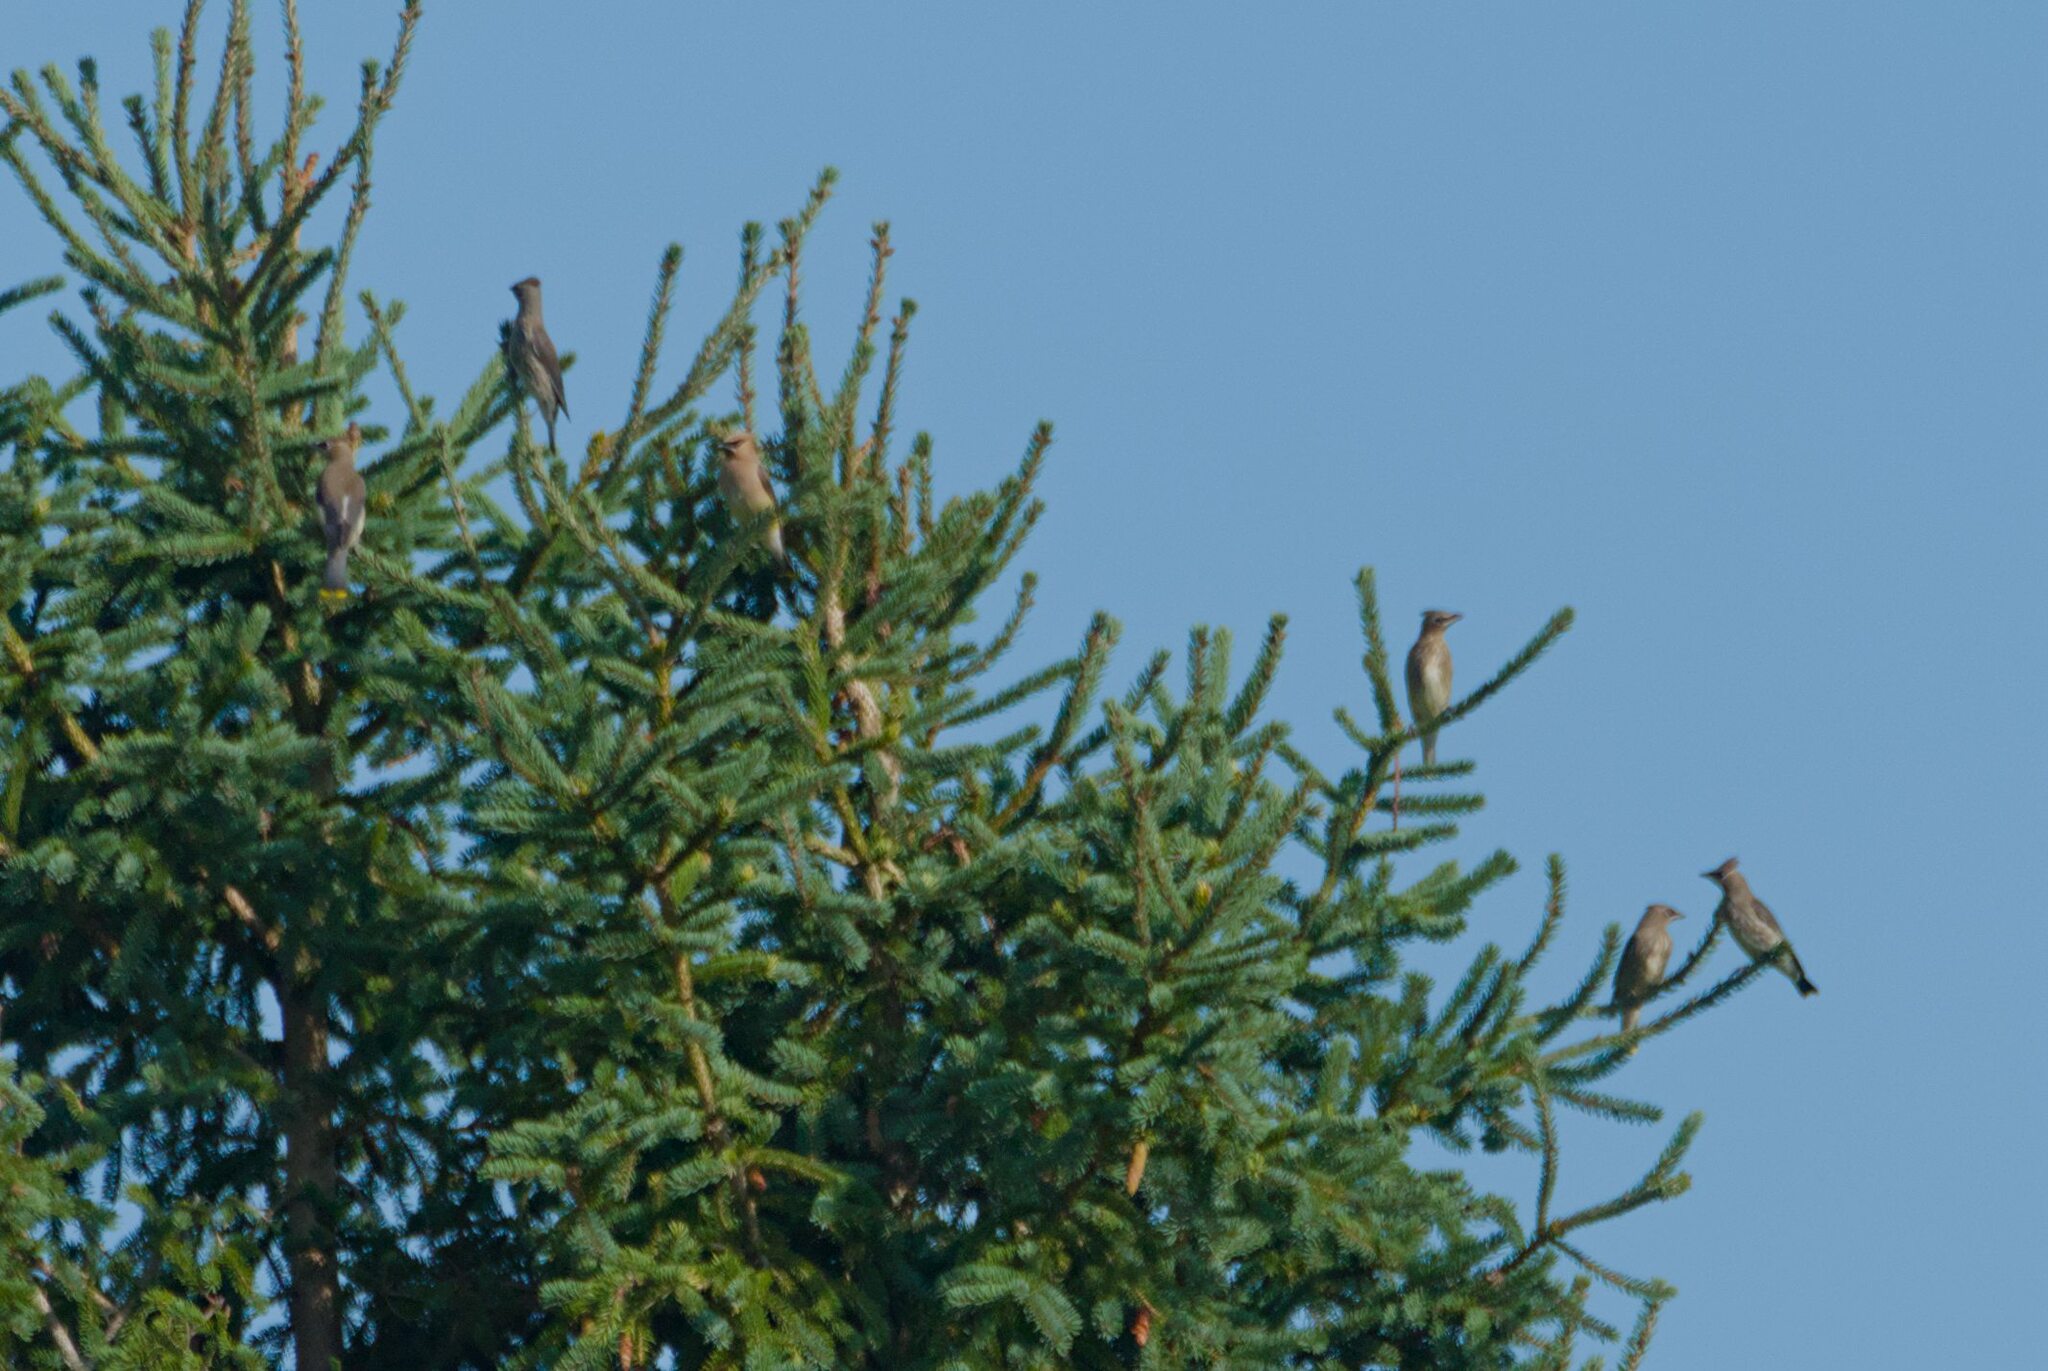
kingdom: Animalia
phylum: Chordata
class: Aves
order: Passeriformes
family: Bombycillidae
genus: Bombycilla
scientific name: Bombycilla cedrorum
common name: Cedar waxwing
